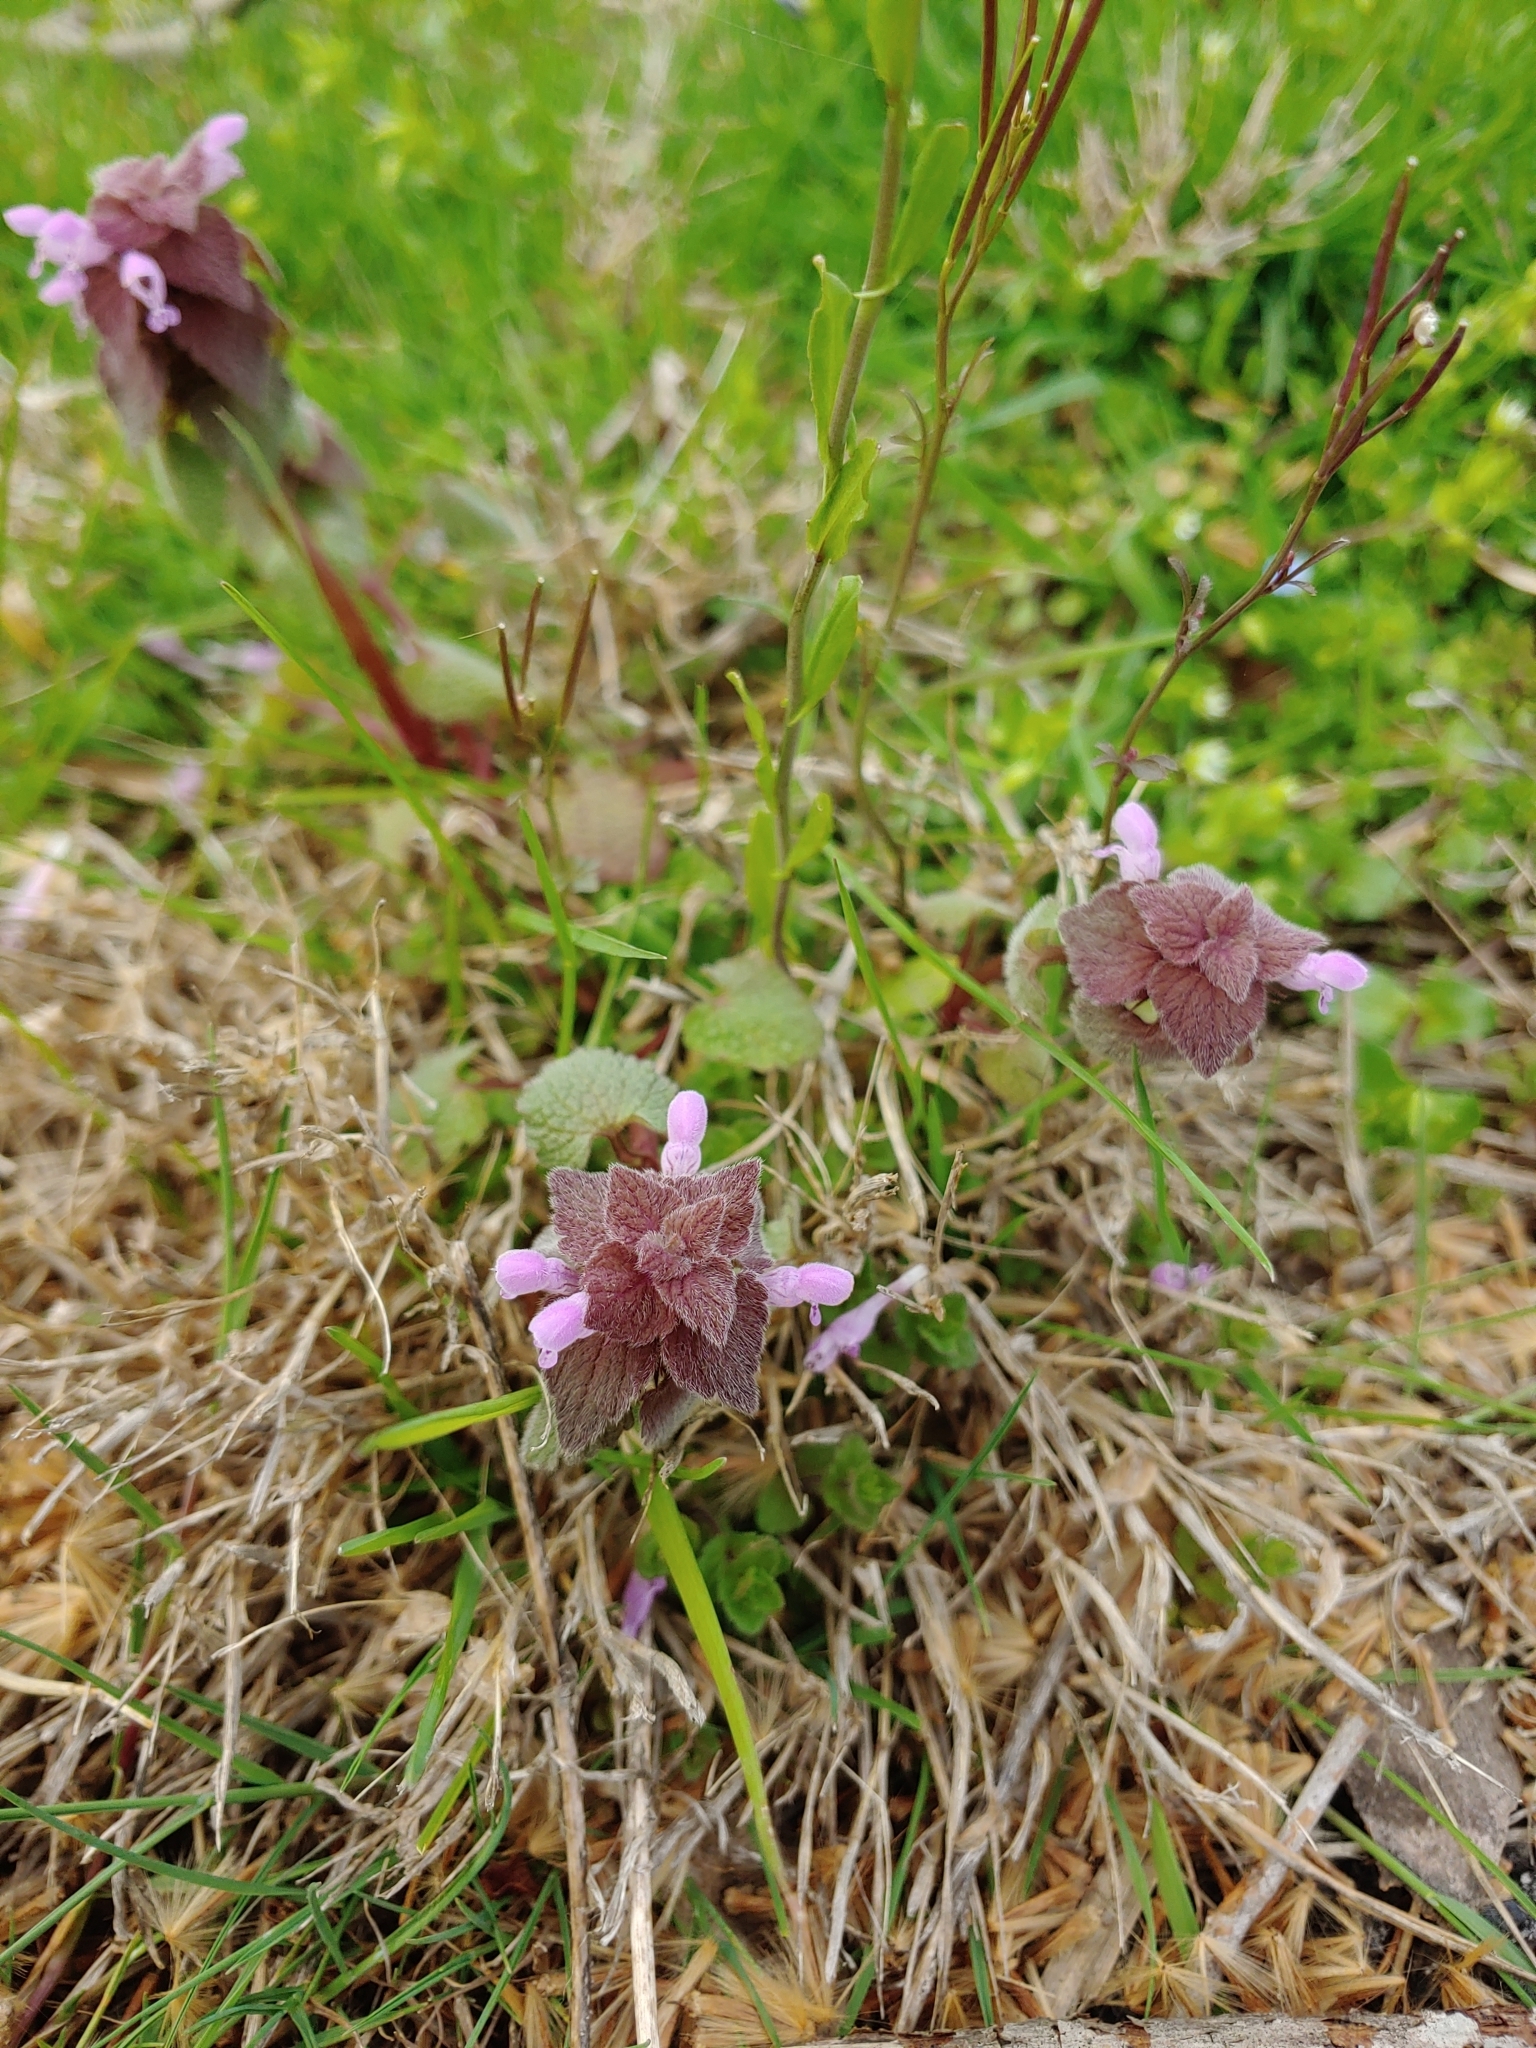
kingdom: Plantae
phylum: Tracheophyta
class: Magnoliopsida
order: Lamiales
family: Lamiaceae
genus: Lamium
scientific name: Lamium purpureum
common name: Red dead-nettle
